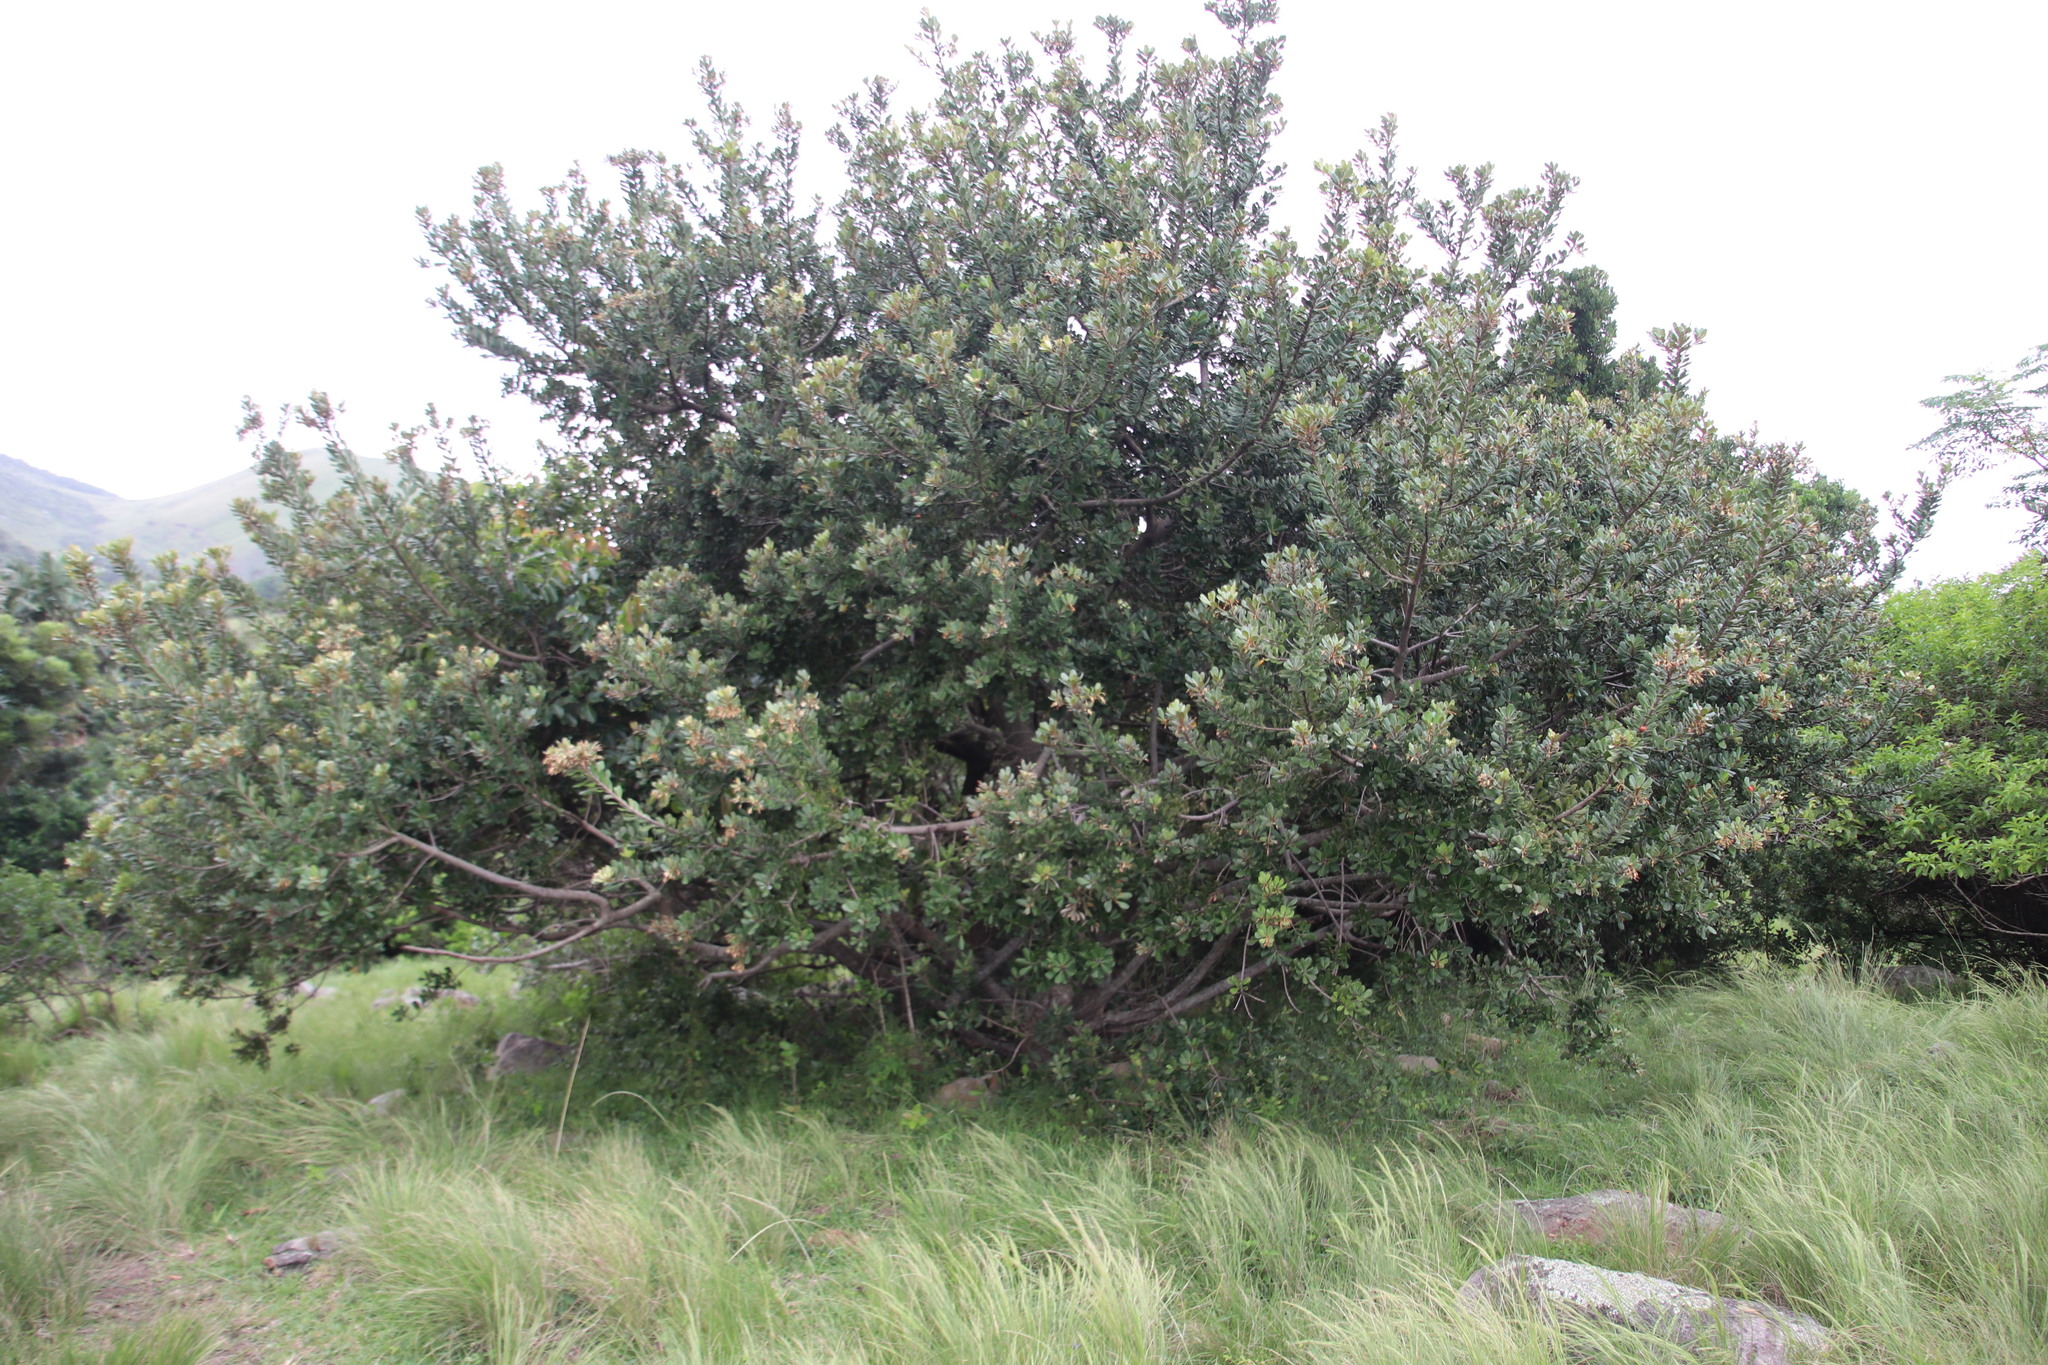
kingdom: Plantae
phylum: Tracheophyta
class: Magnoliopsida
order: Ericales
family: Sapotaceae
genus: Mimusops
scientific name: Mimusops caffra
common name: Coastal red milkwood
